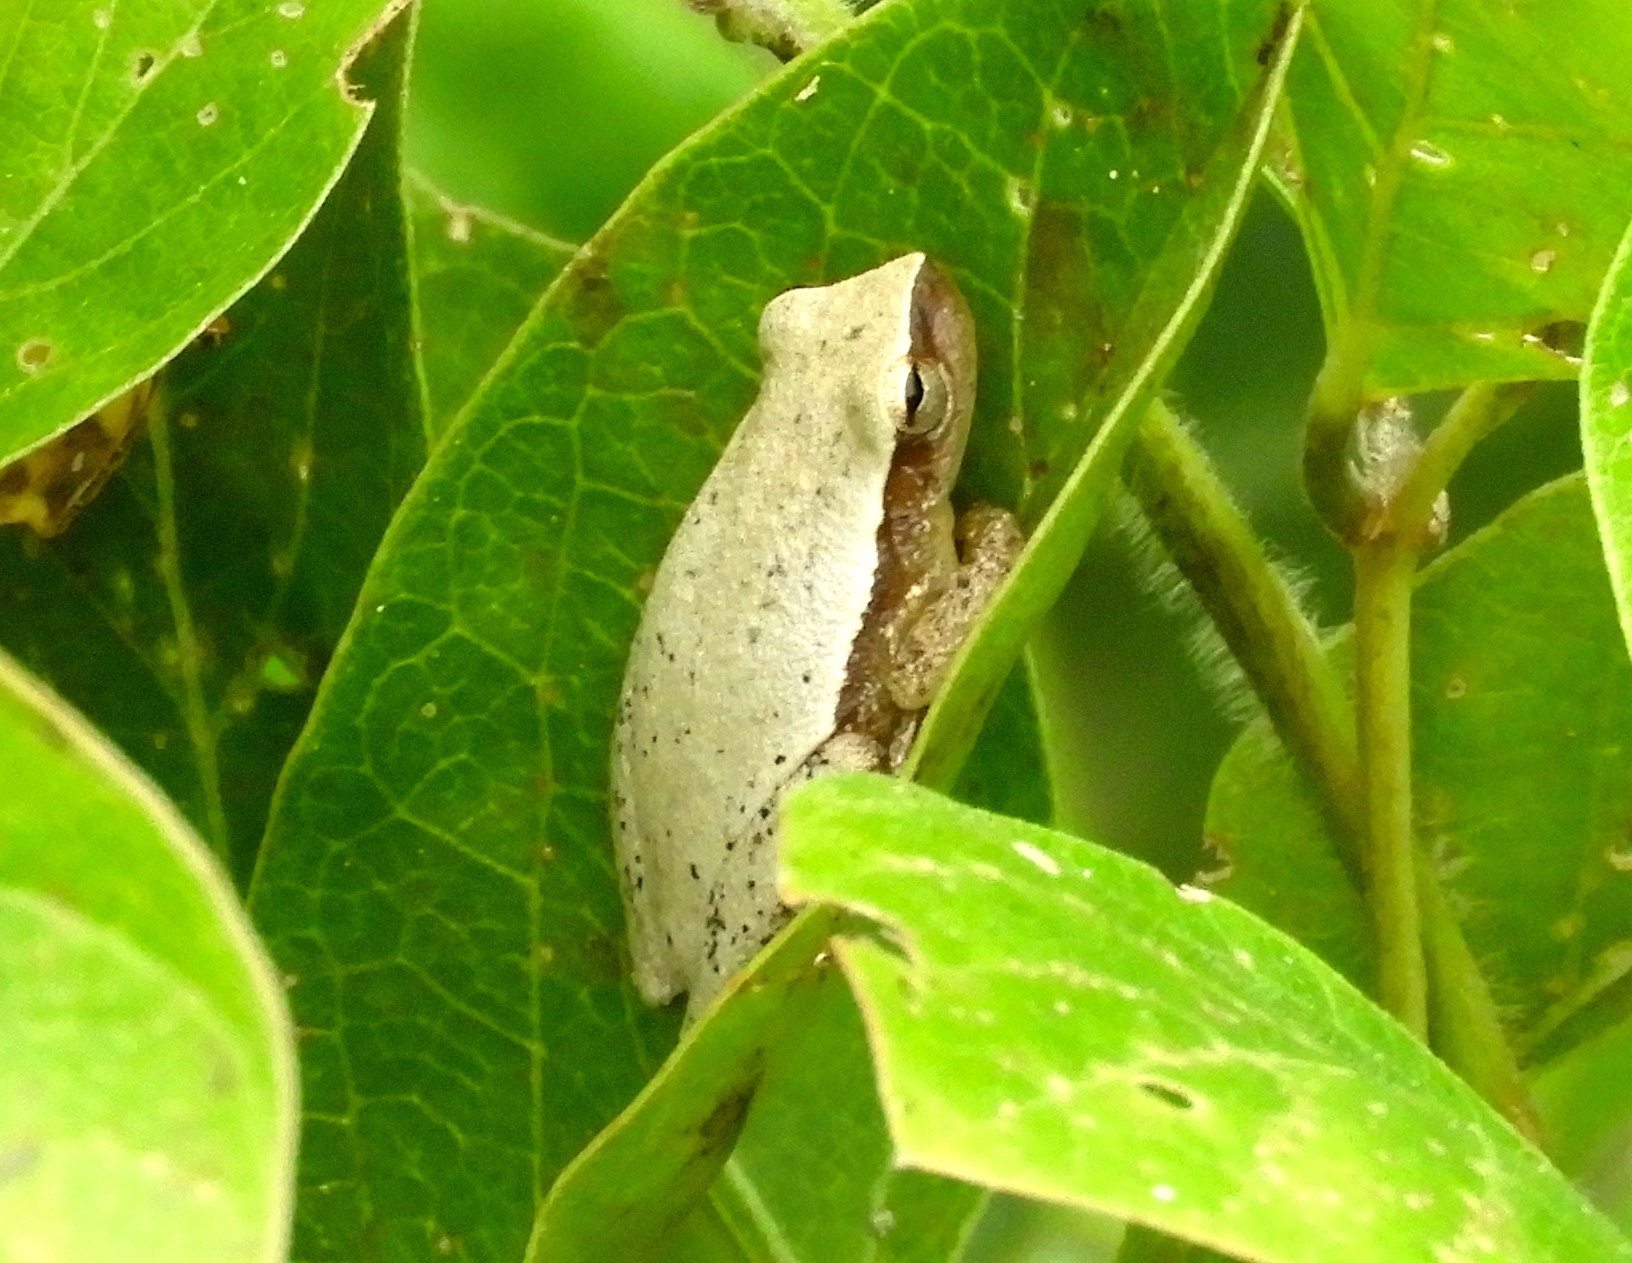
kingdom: Animalia
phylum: Chordata
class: Amphibia
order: Anura
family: Hylidae
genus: Tlalocohyla
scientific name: Tlalocohyla smithii
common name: Dwarf mexican treefrog
